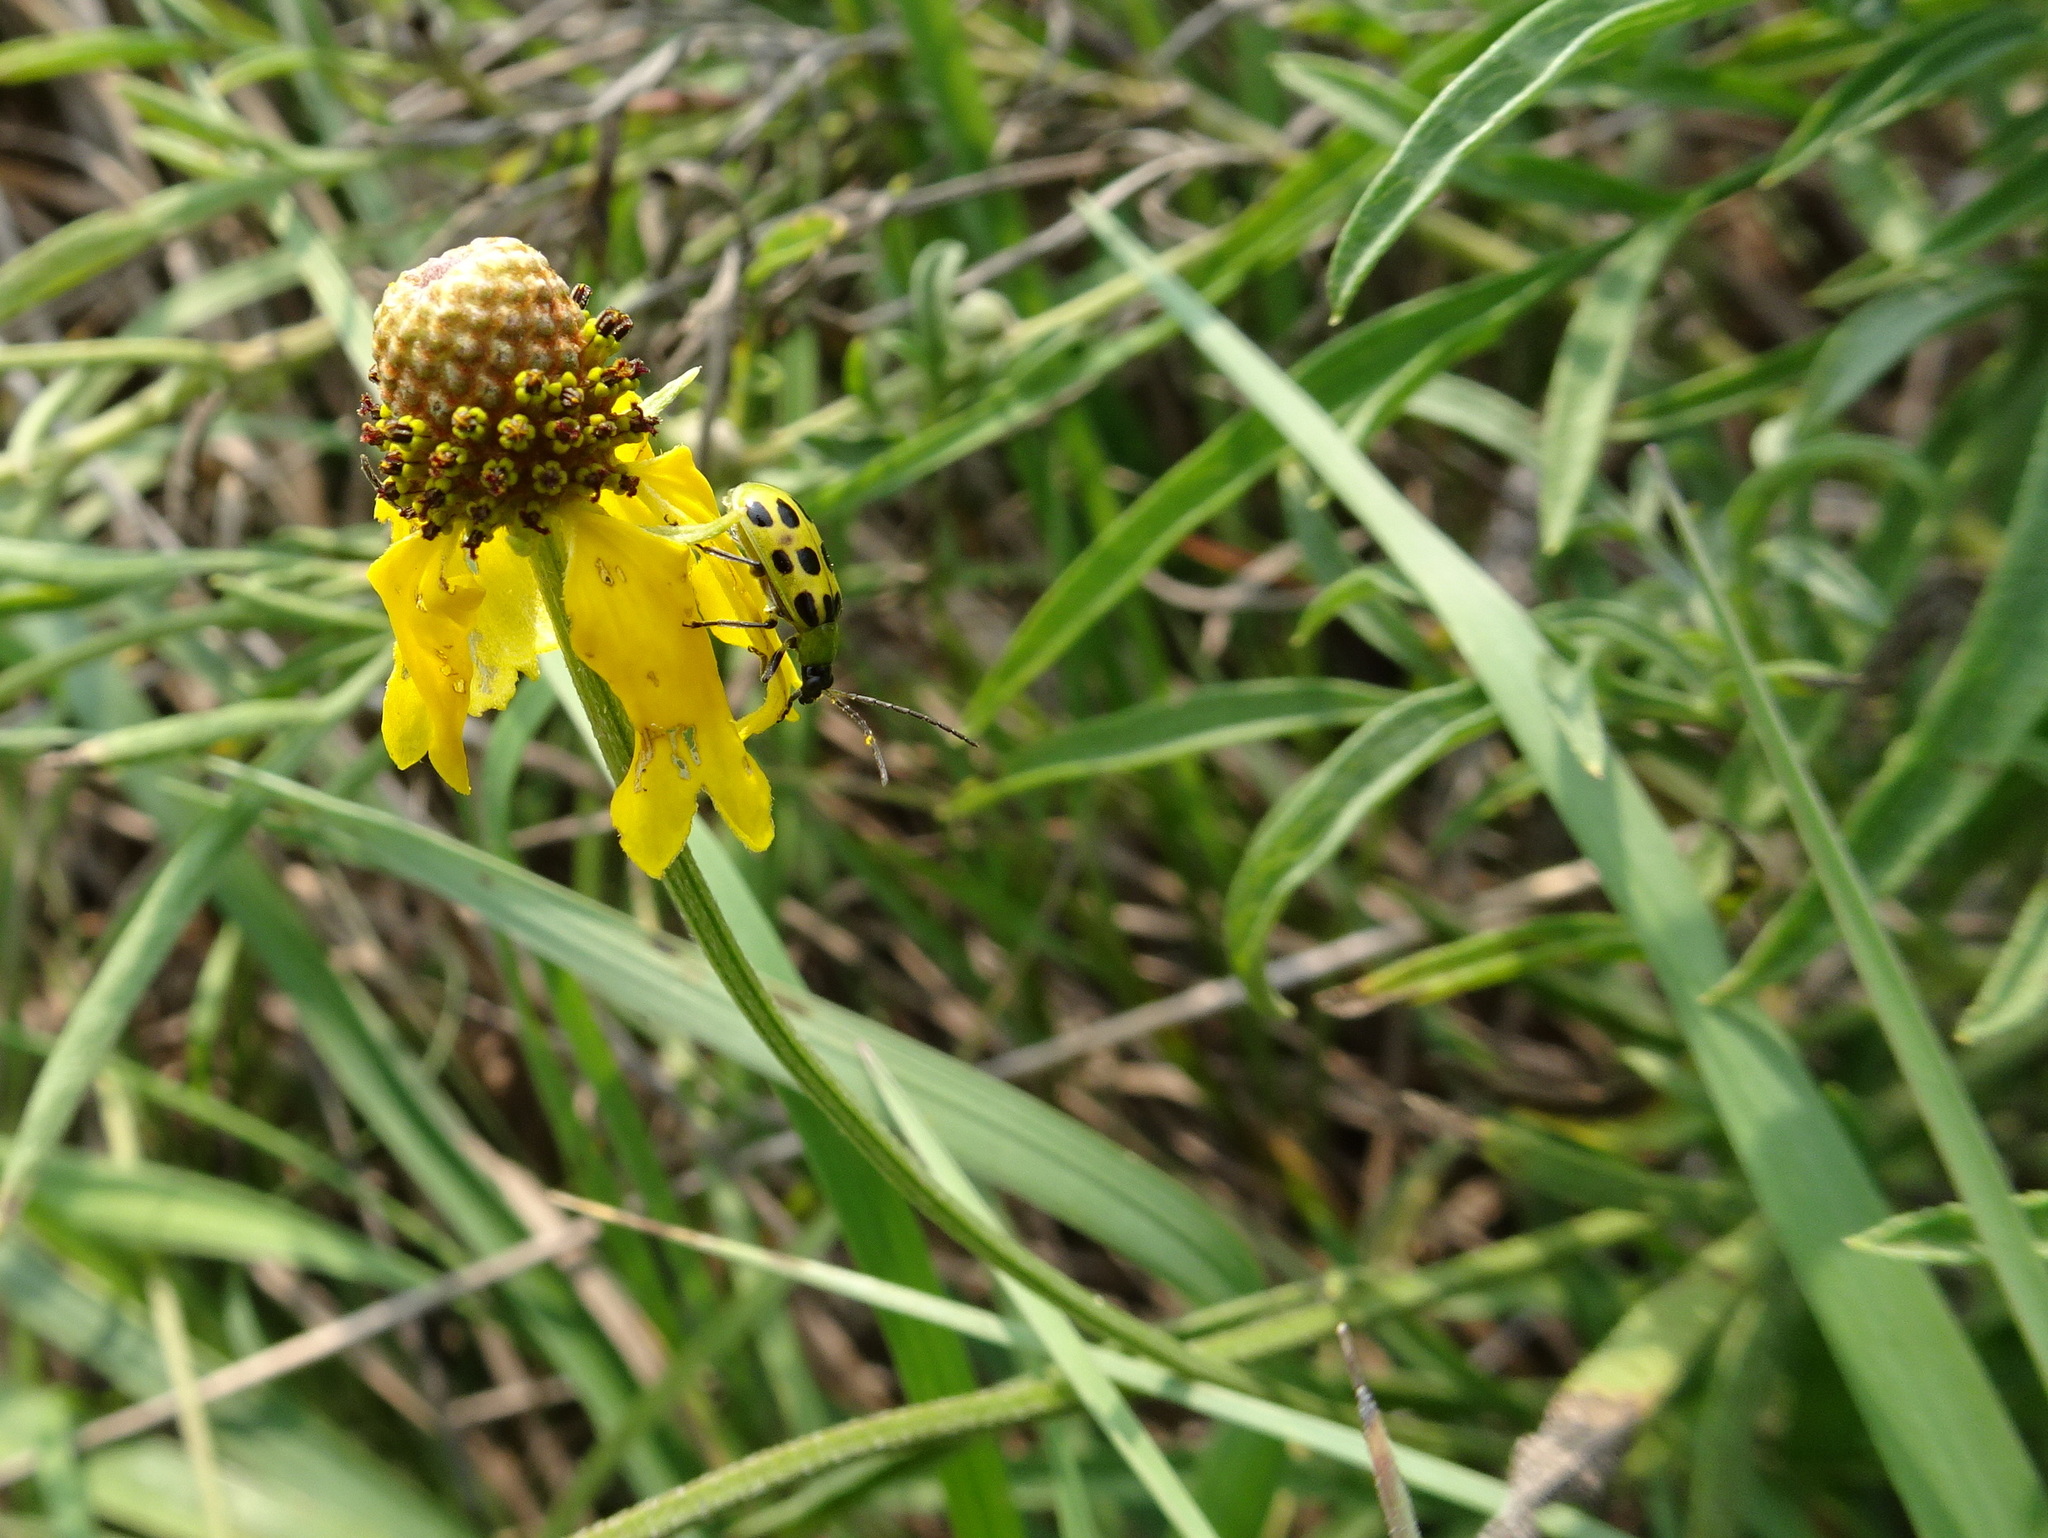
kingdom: Plantae
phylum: Tracheophyta
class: Magnoliopsida
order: Asterales
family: Asteraceae
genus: Ratibida
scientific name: Ratibida columnifera
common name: Prairie coneflower
